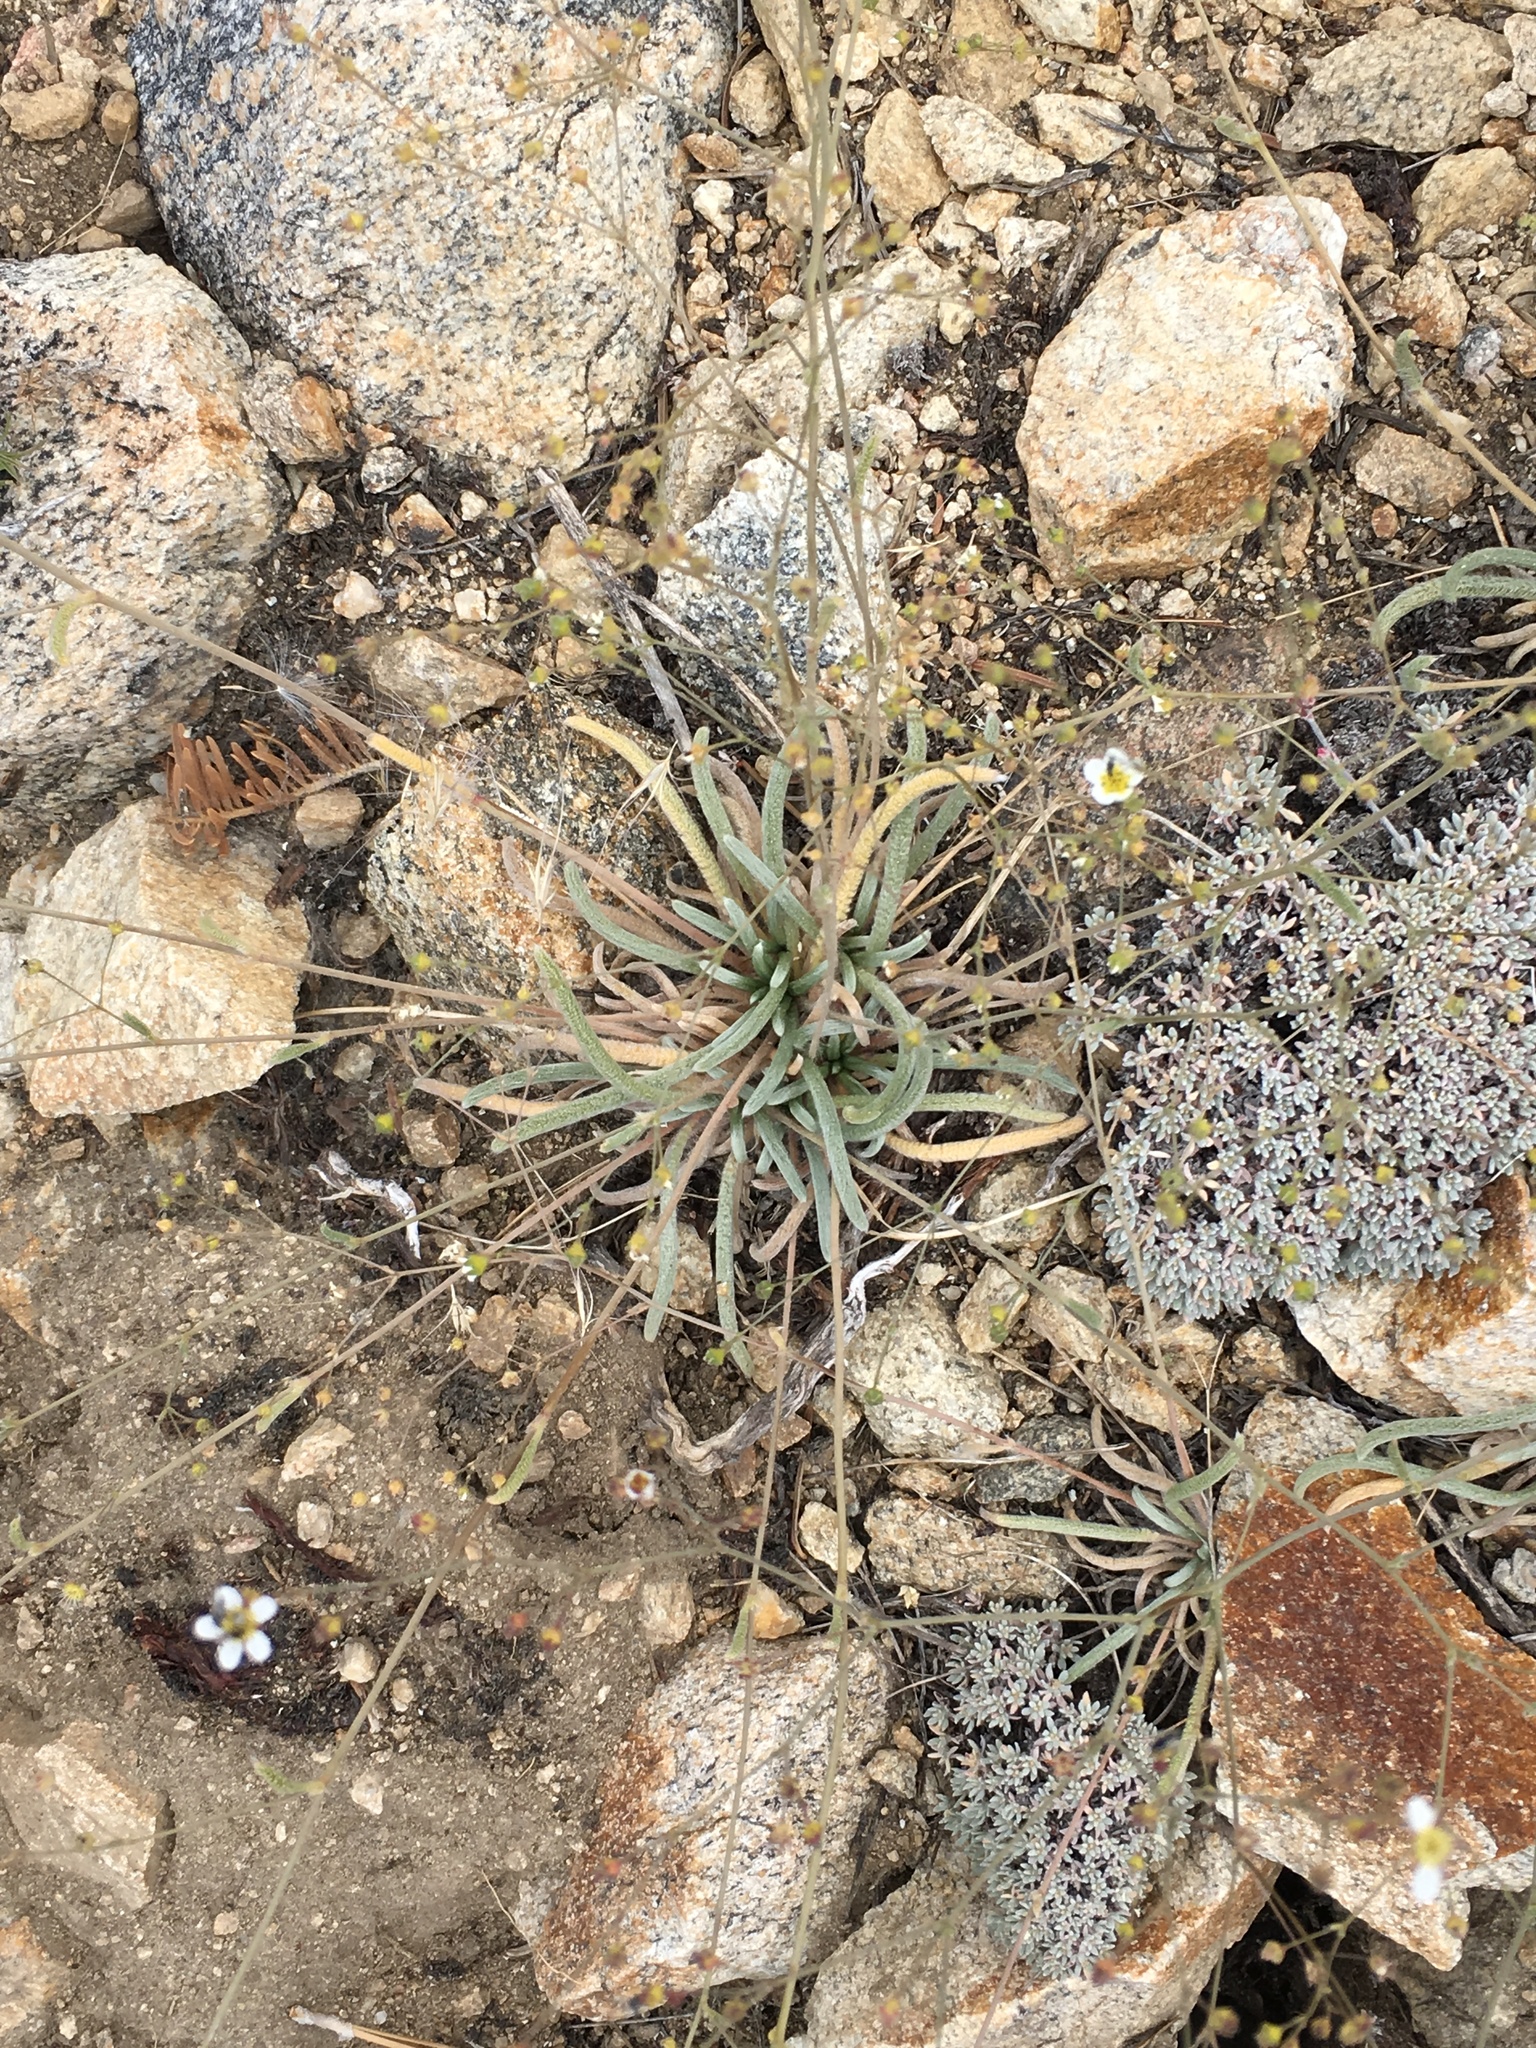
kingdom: Plantae
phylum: Tracheophyta
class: Magnoliopsida
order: Rosales
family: Rosaceae
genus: Potentilla
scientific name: Potentilla santolinoides
